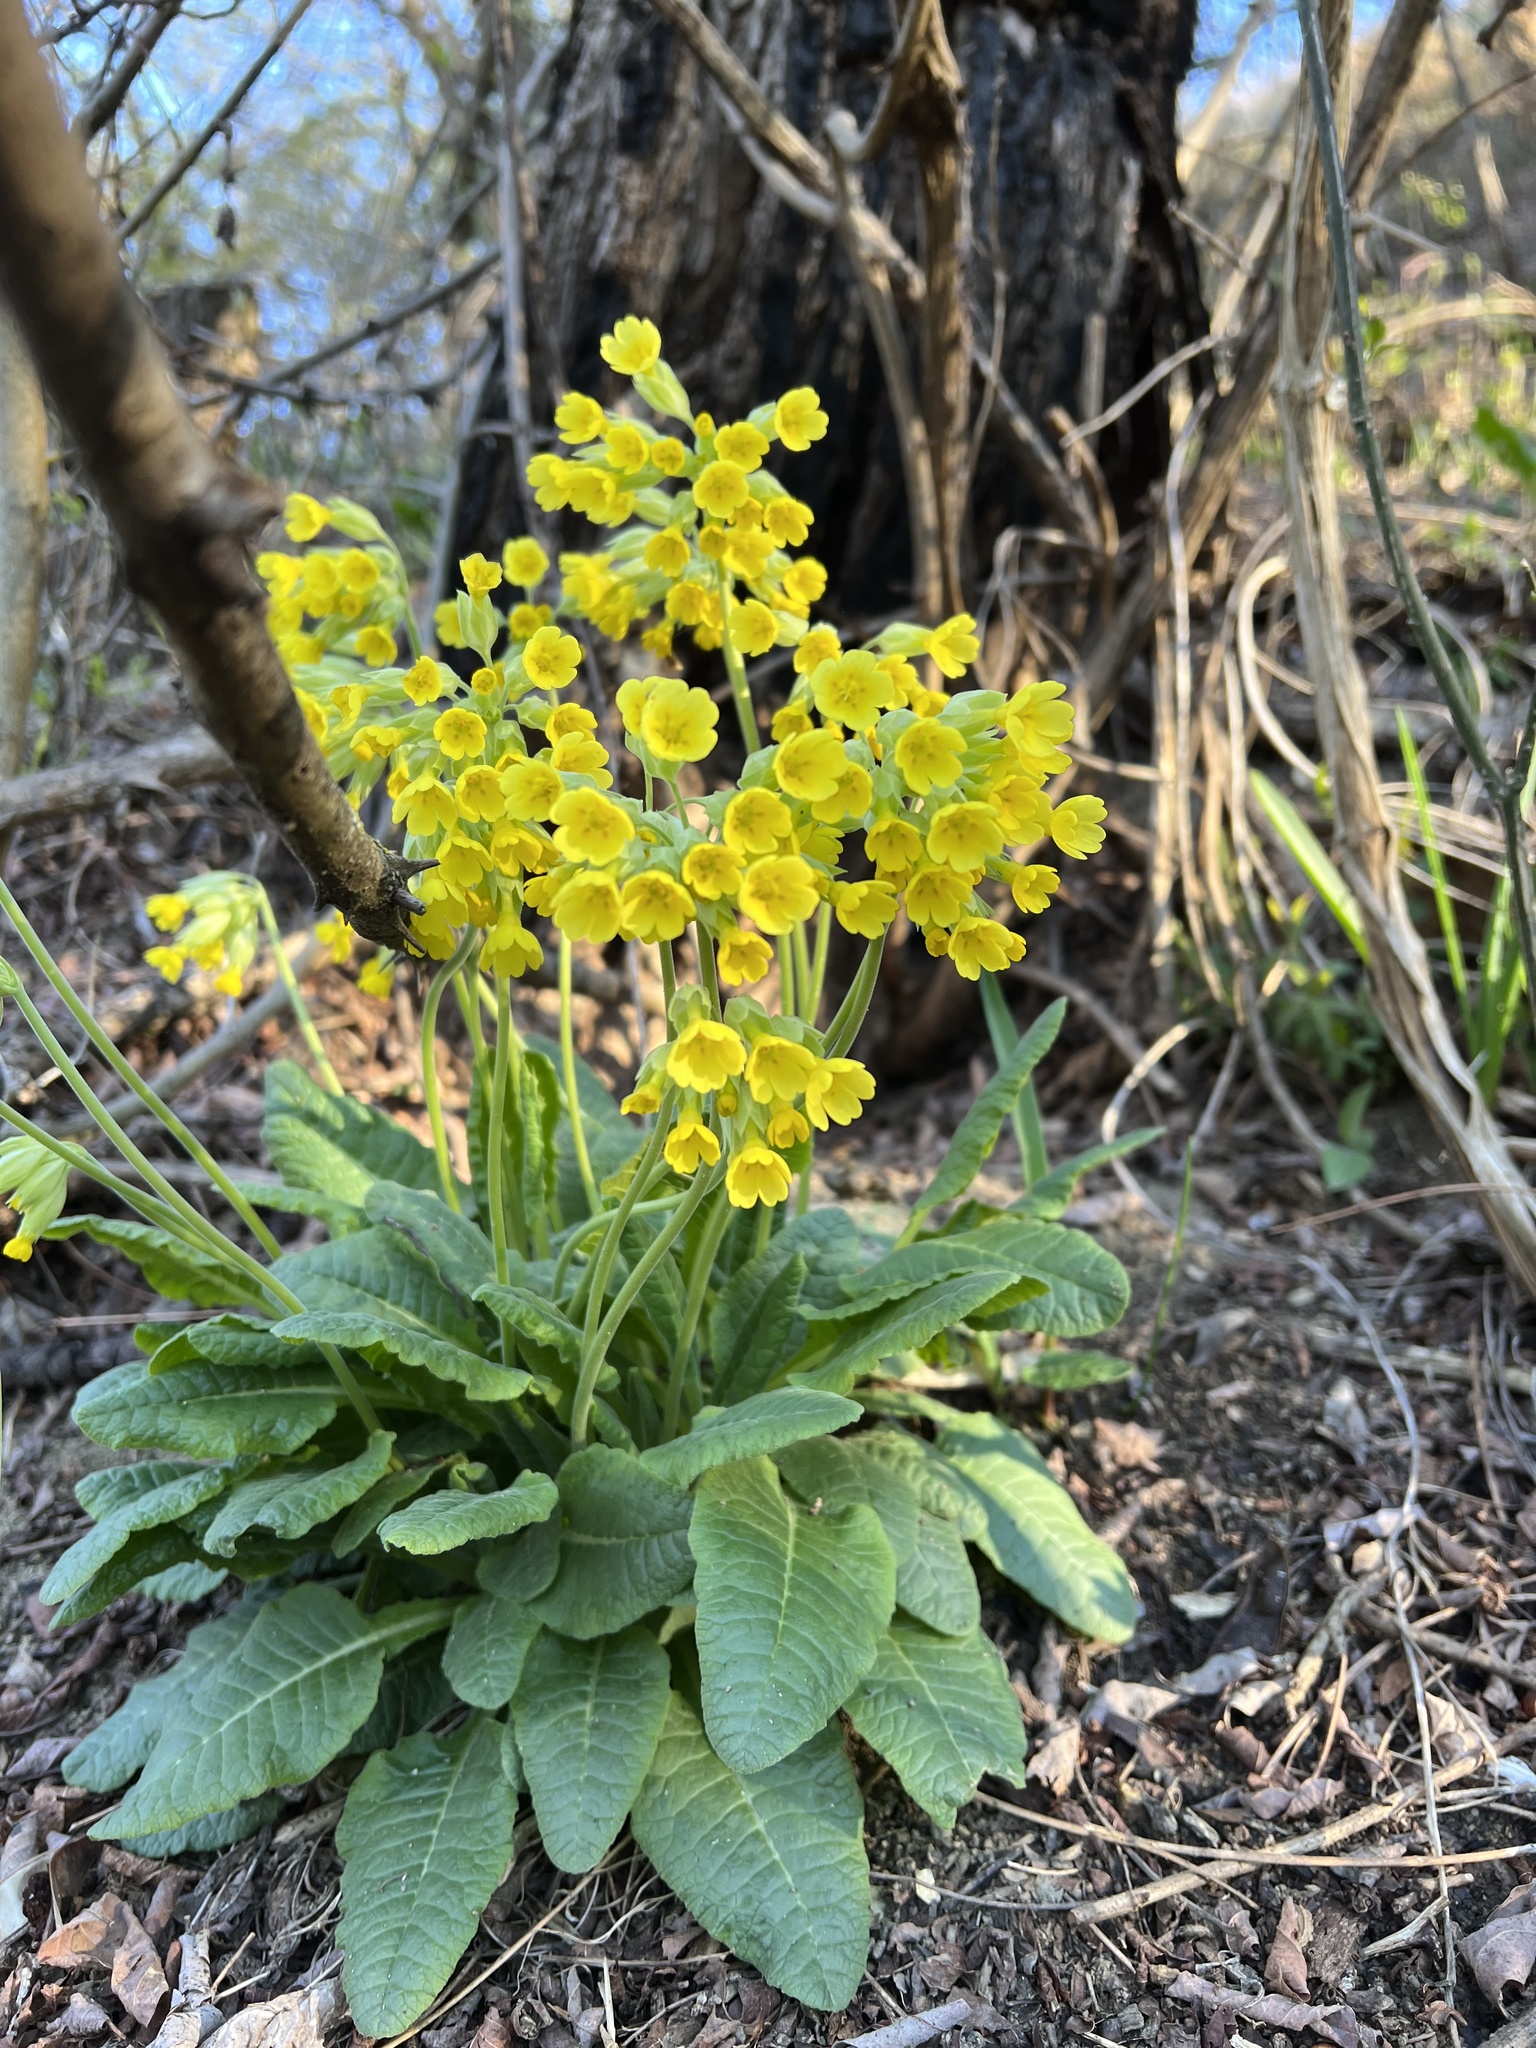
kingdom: Plantae
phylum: Tracheophyta
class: Magnoliopsida
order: Ericales
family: Primulaceae
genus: Primula
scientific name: Primula veris
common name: Cowslip
